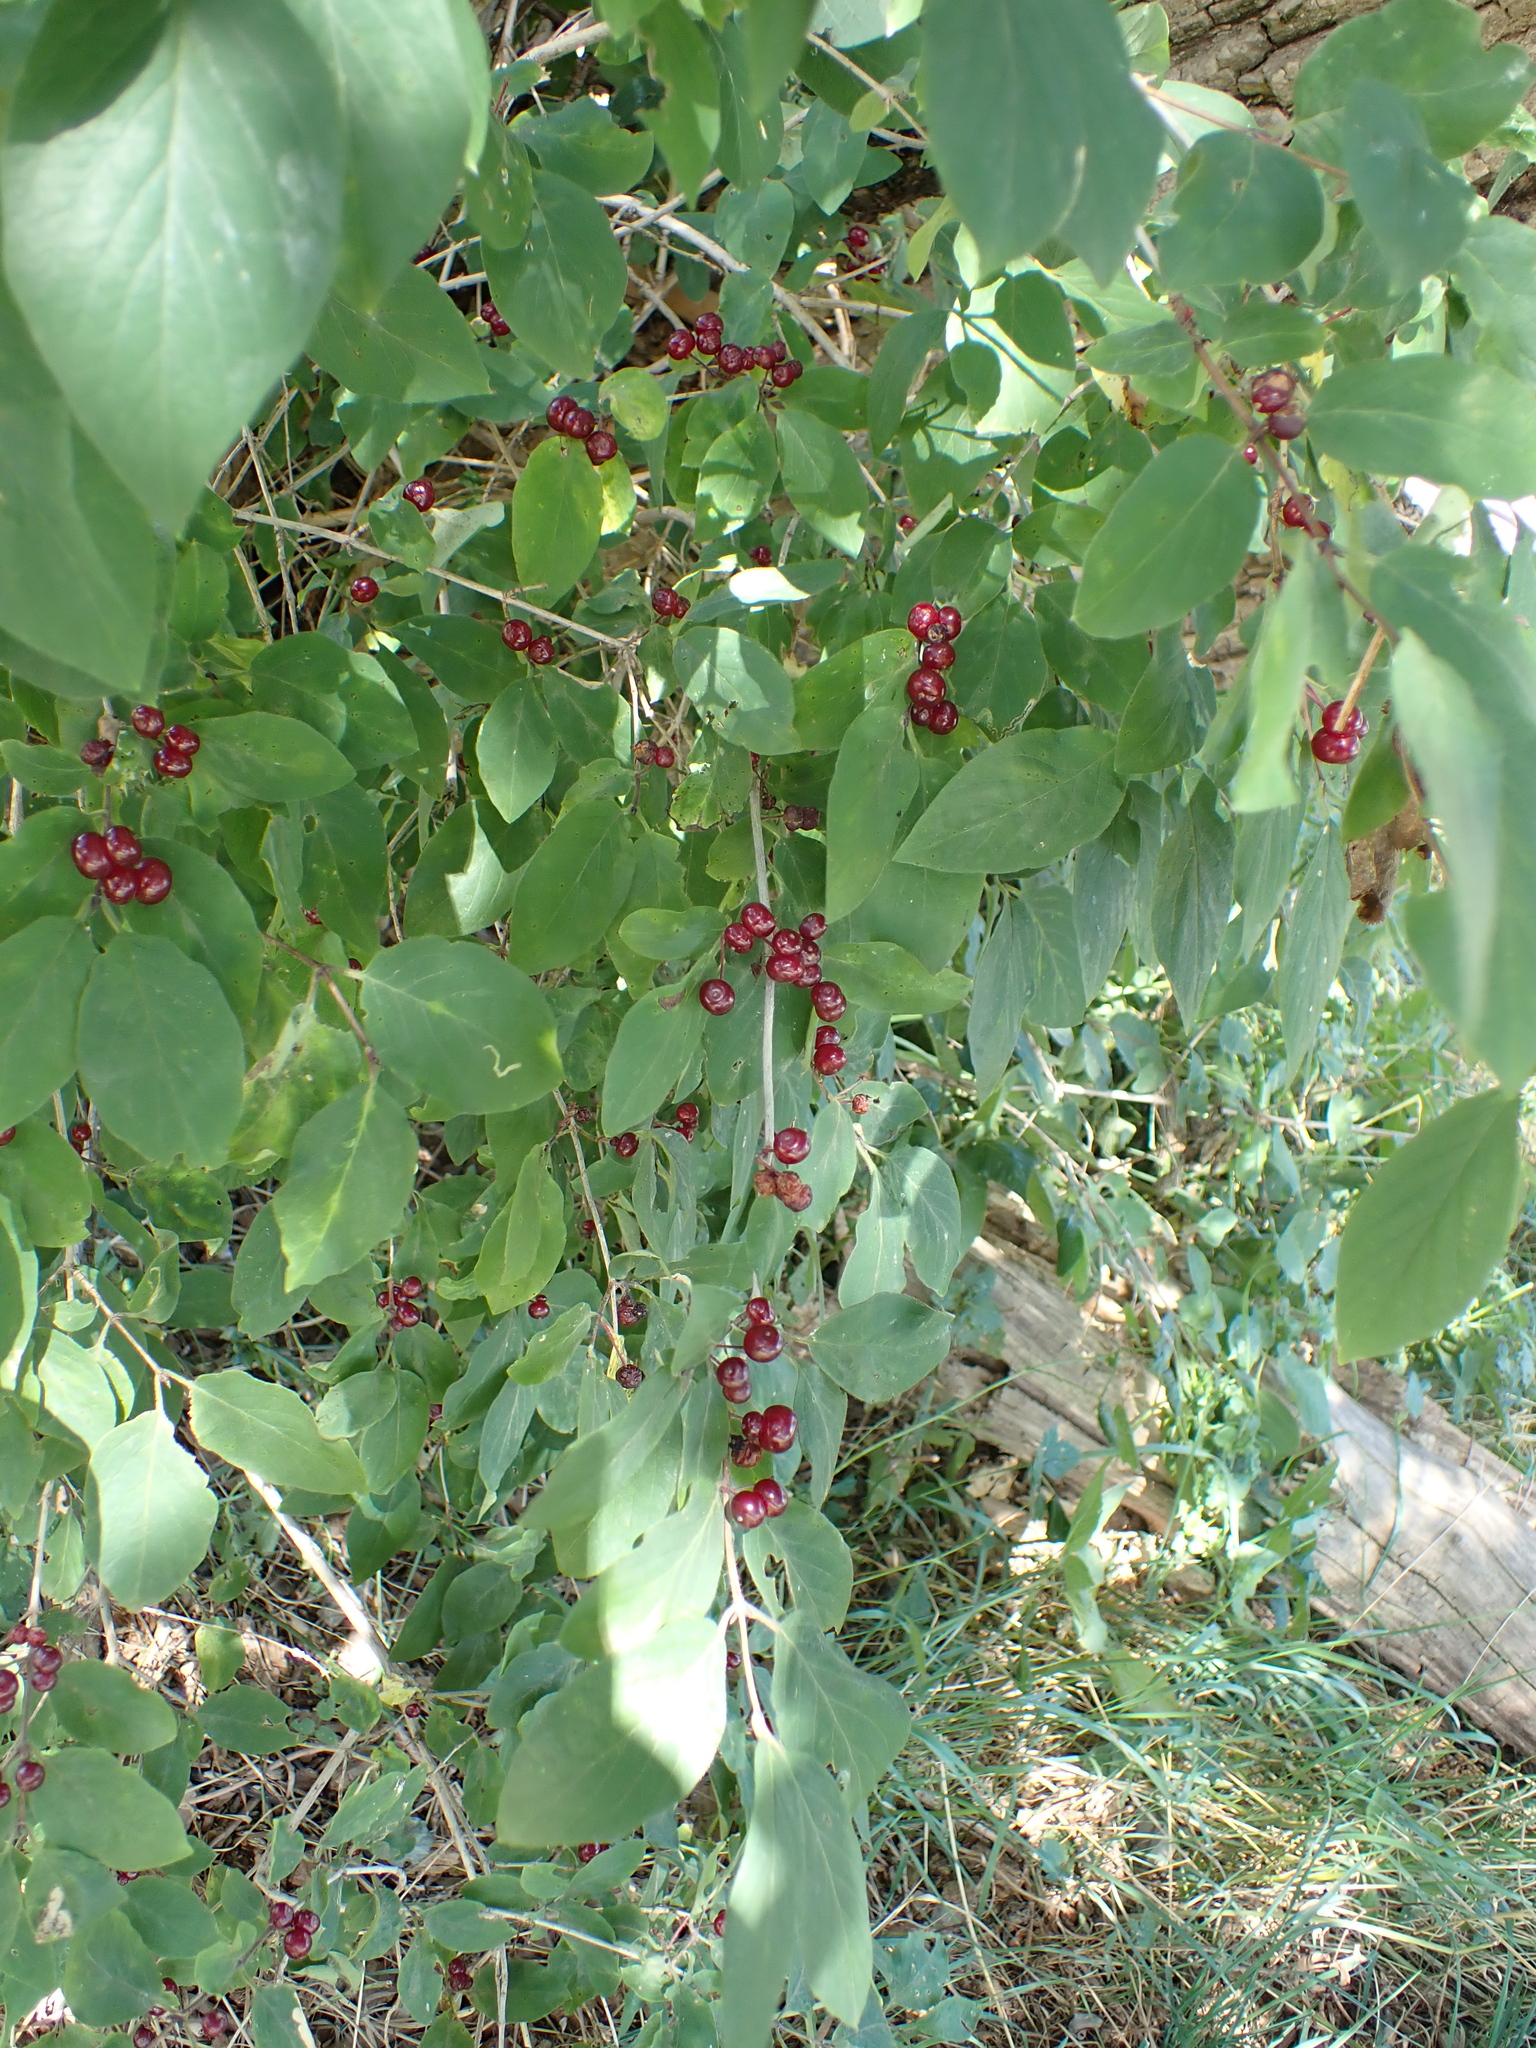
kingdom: Plantae
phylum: Tracheophyta
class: Magnoliopsida
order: Dipsacales
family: Caprifoliaceae
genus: Lonicera
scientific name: Lonicera xylosteum
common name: Fly honeysuckle
